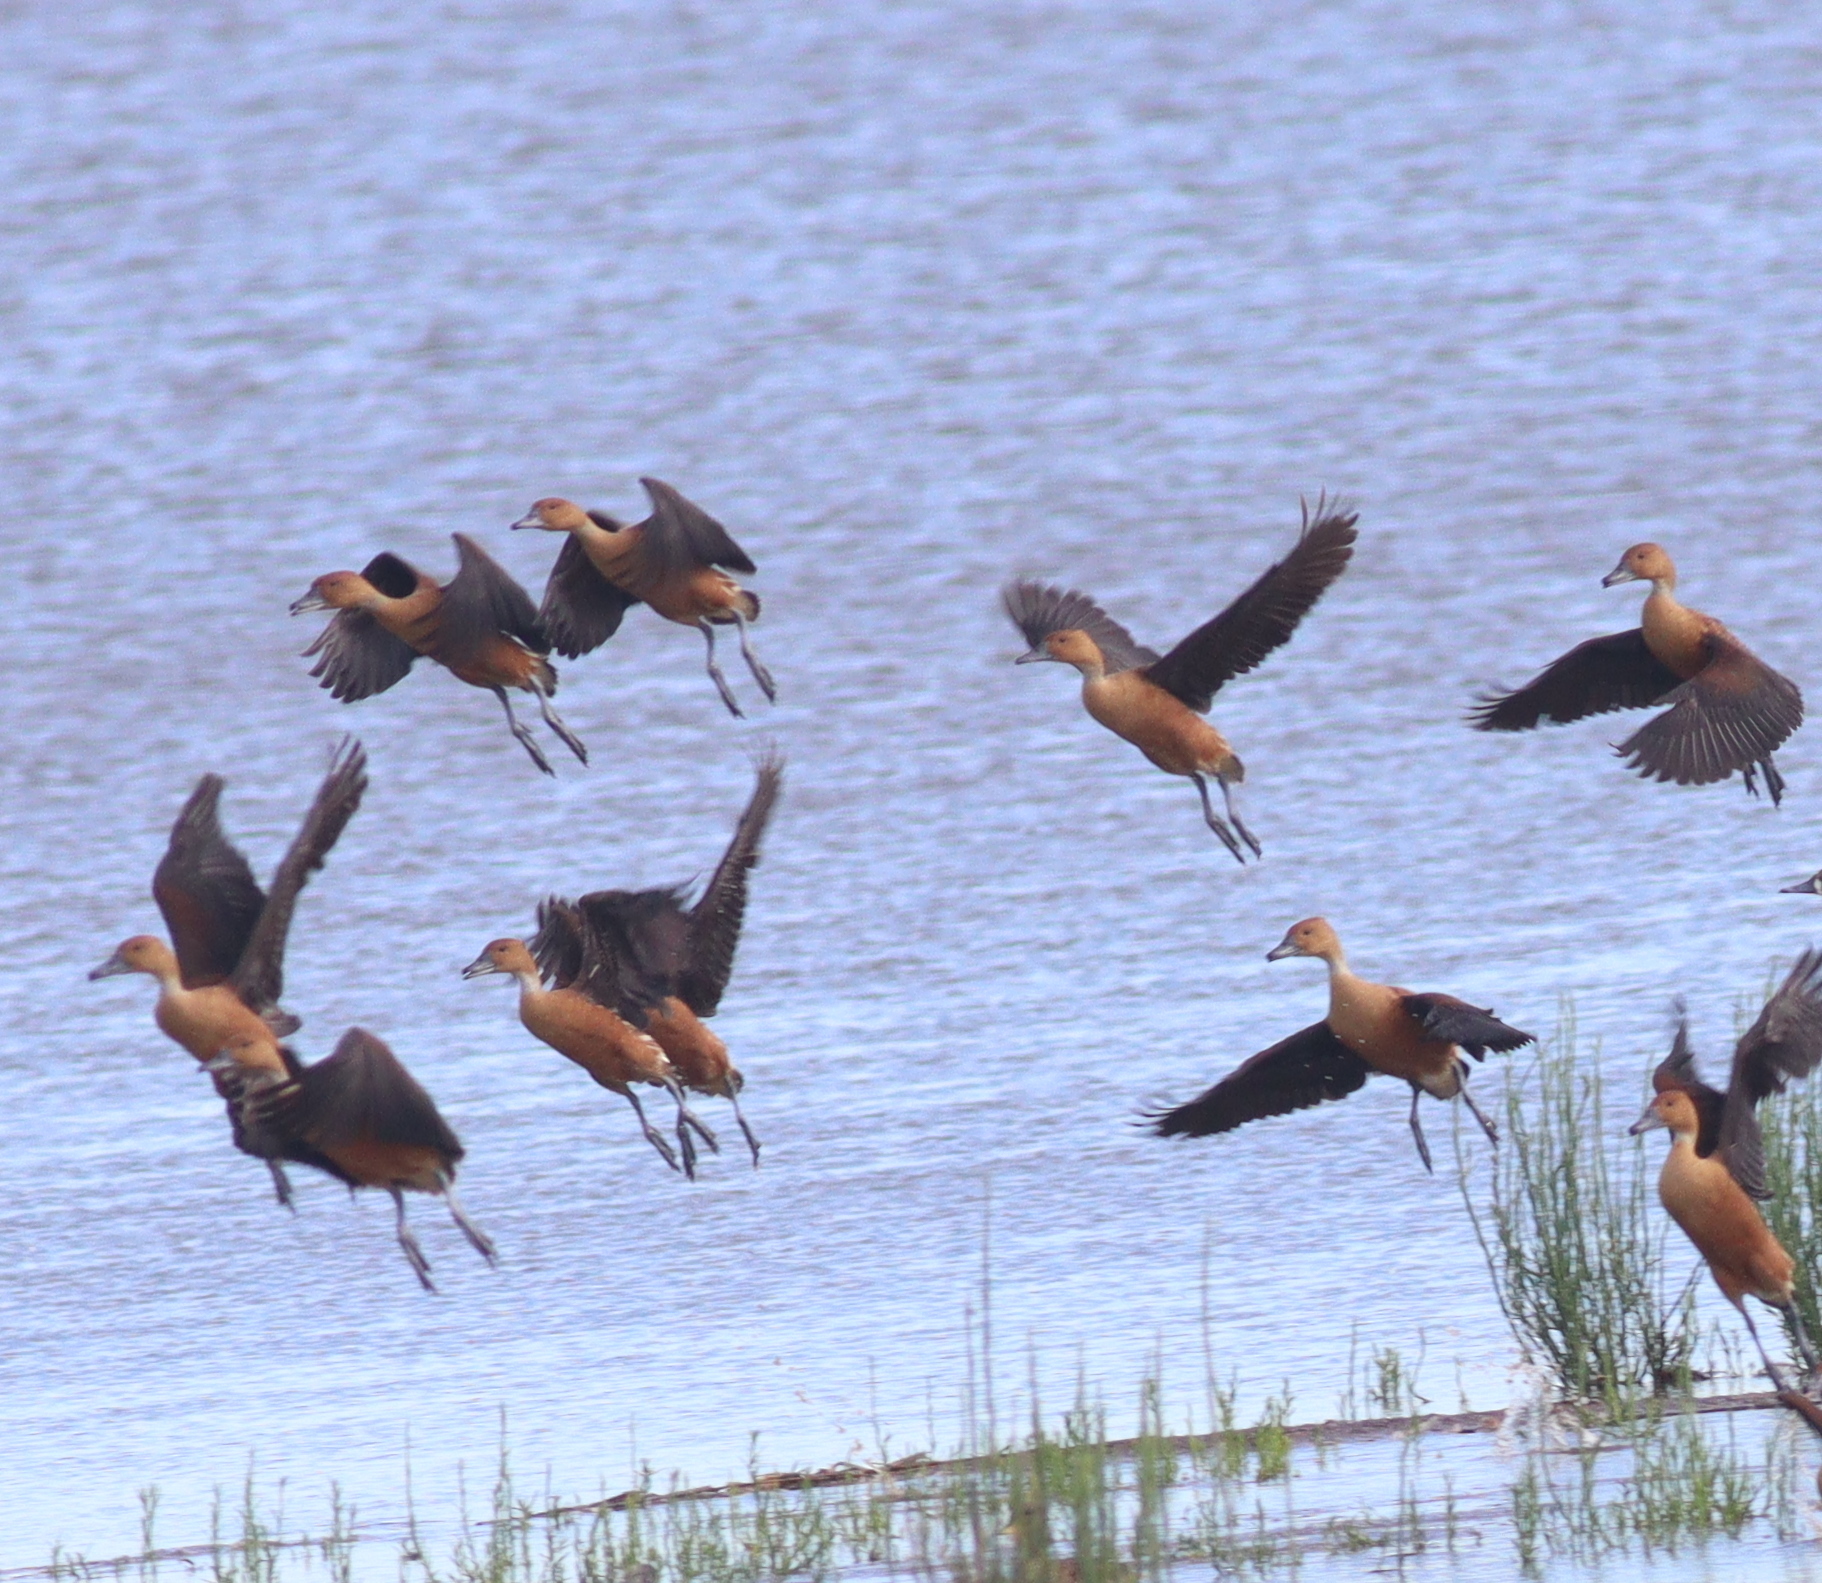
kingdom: Animalia
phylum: Chordata
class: Aves
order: Anseriformes
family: Anatidae
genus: Dendrocygna
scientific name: Dendrocygna bicolor
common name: Fulvous whistling duck
